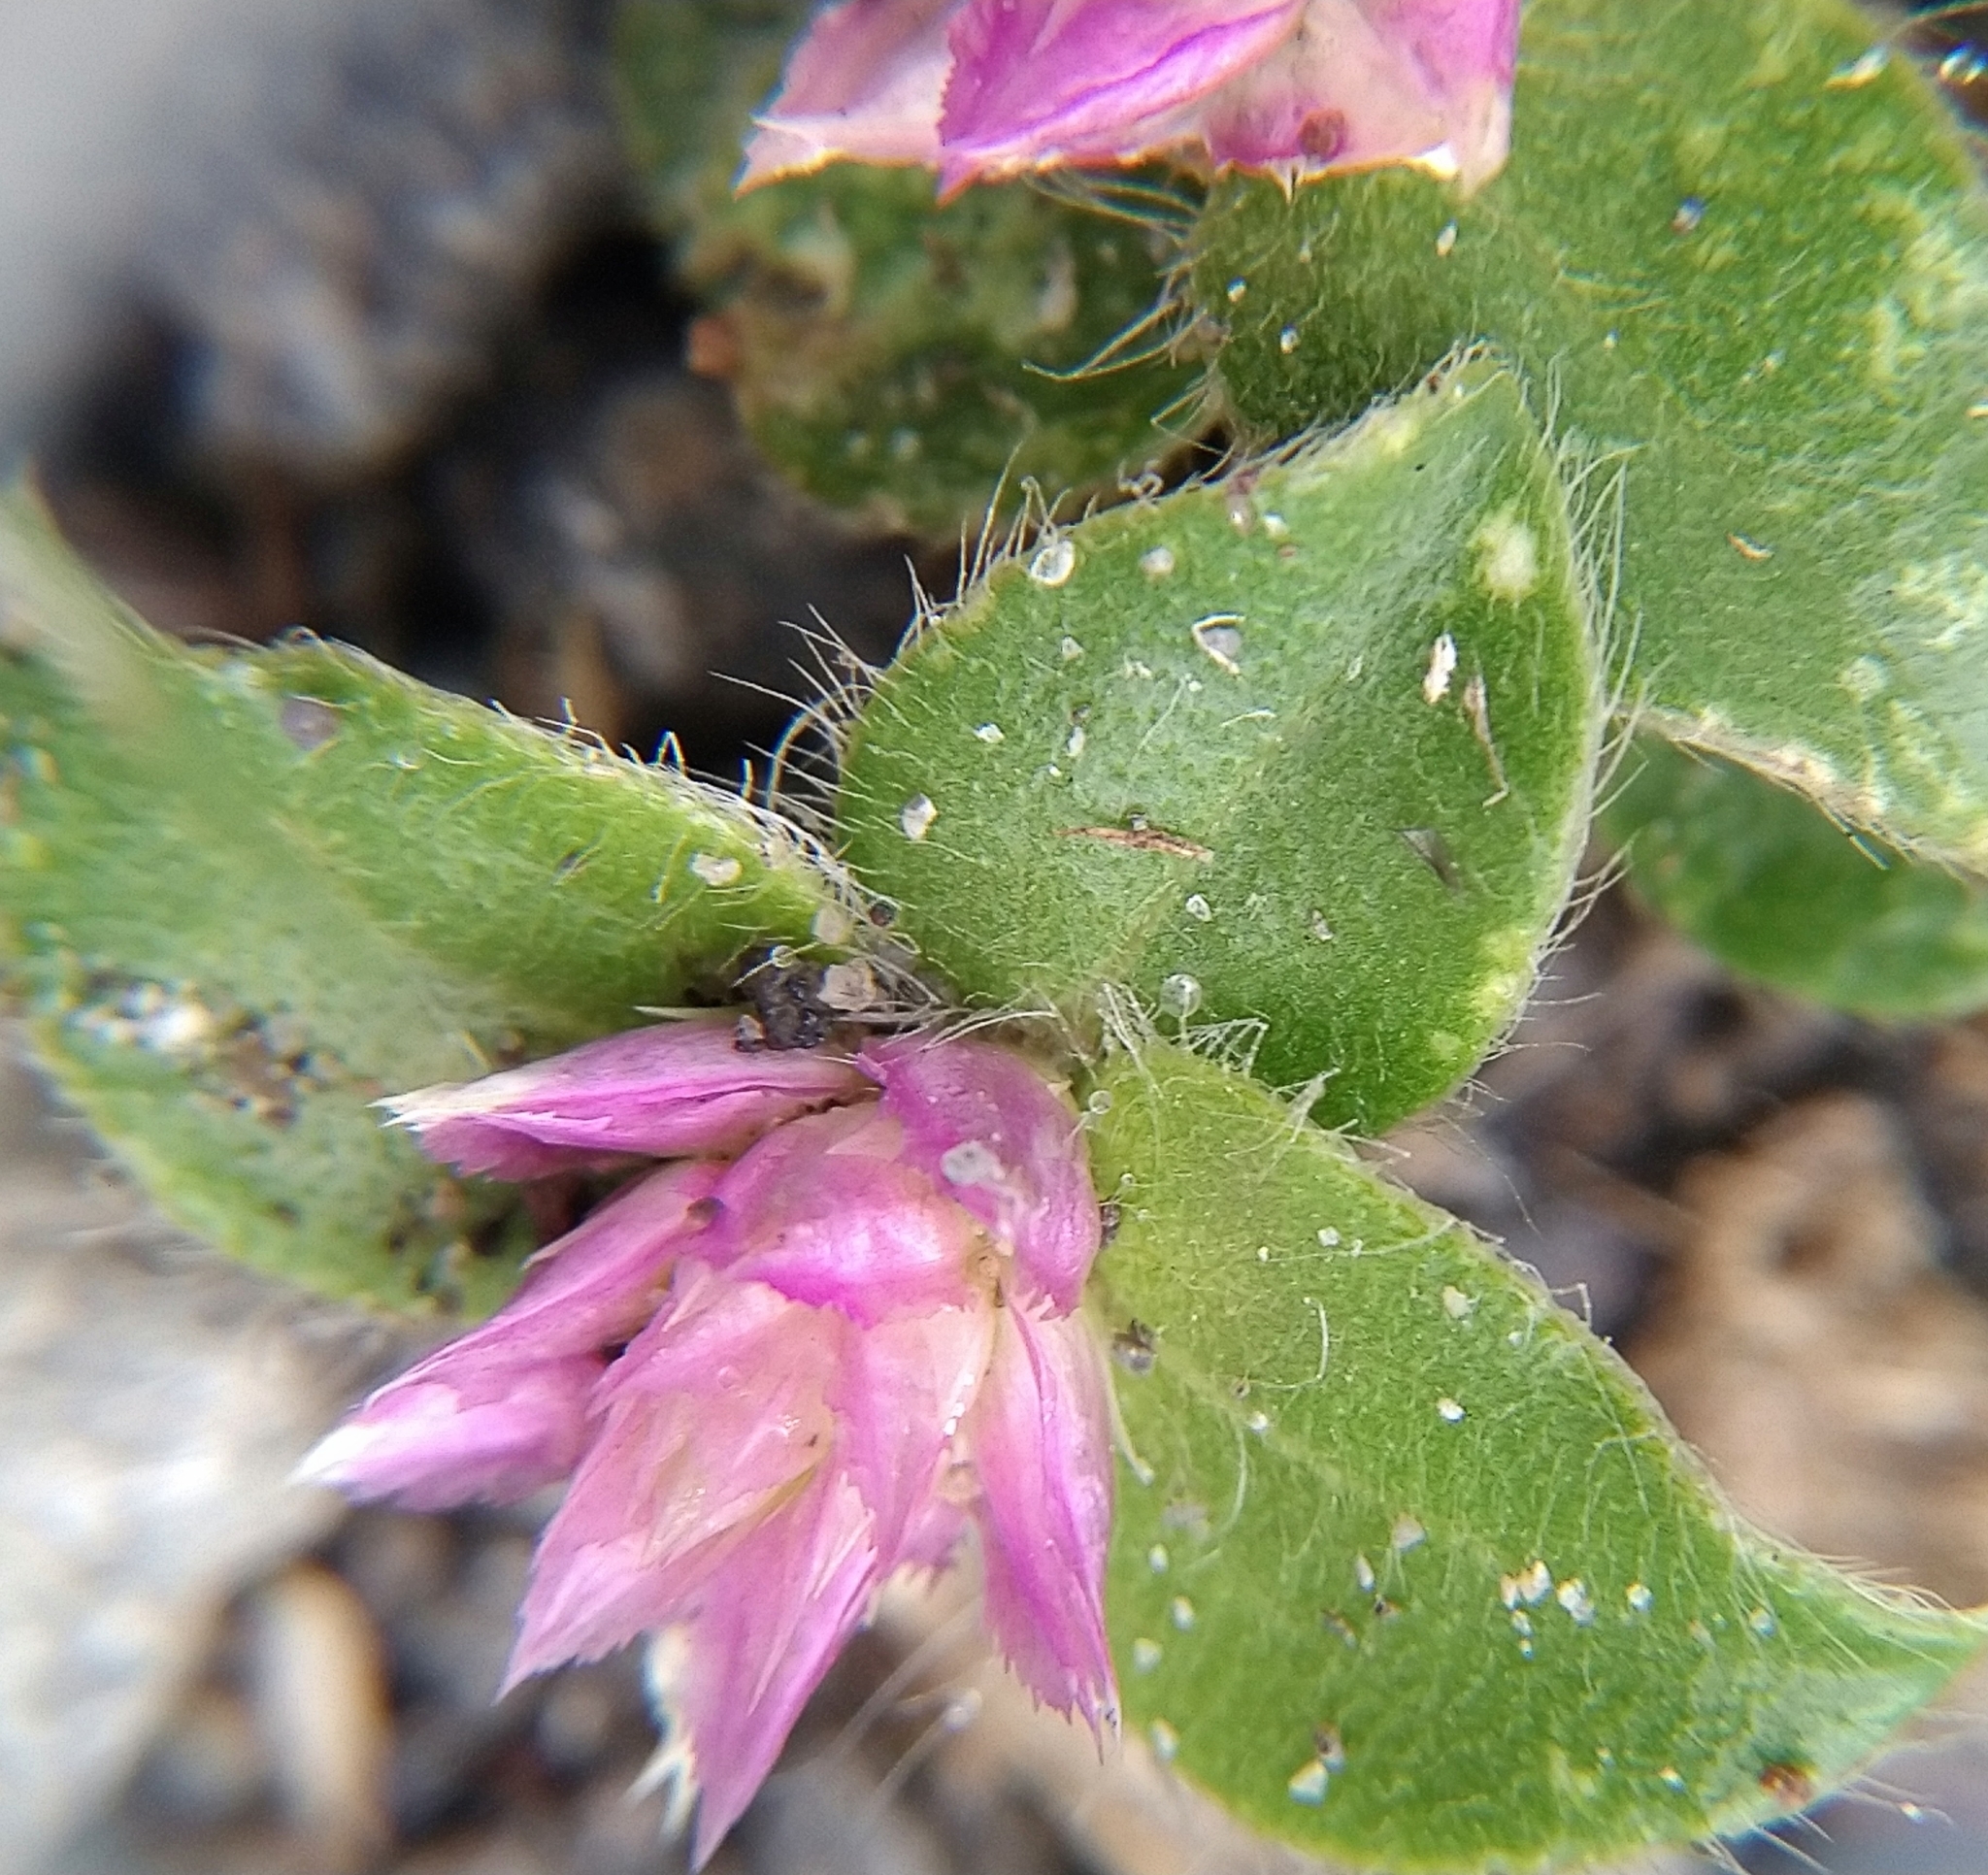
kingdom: Plantae
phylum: Tracheophyta
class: Magnoliopsida
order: Caryophyllales
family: Amaranthaceae
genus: Gomphrena
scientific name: Gomphrena serrata
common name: Arrasa con todo
